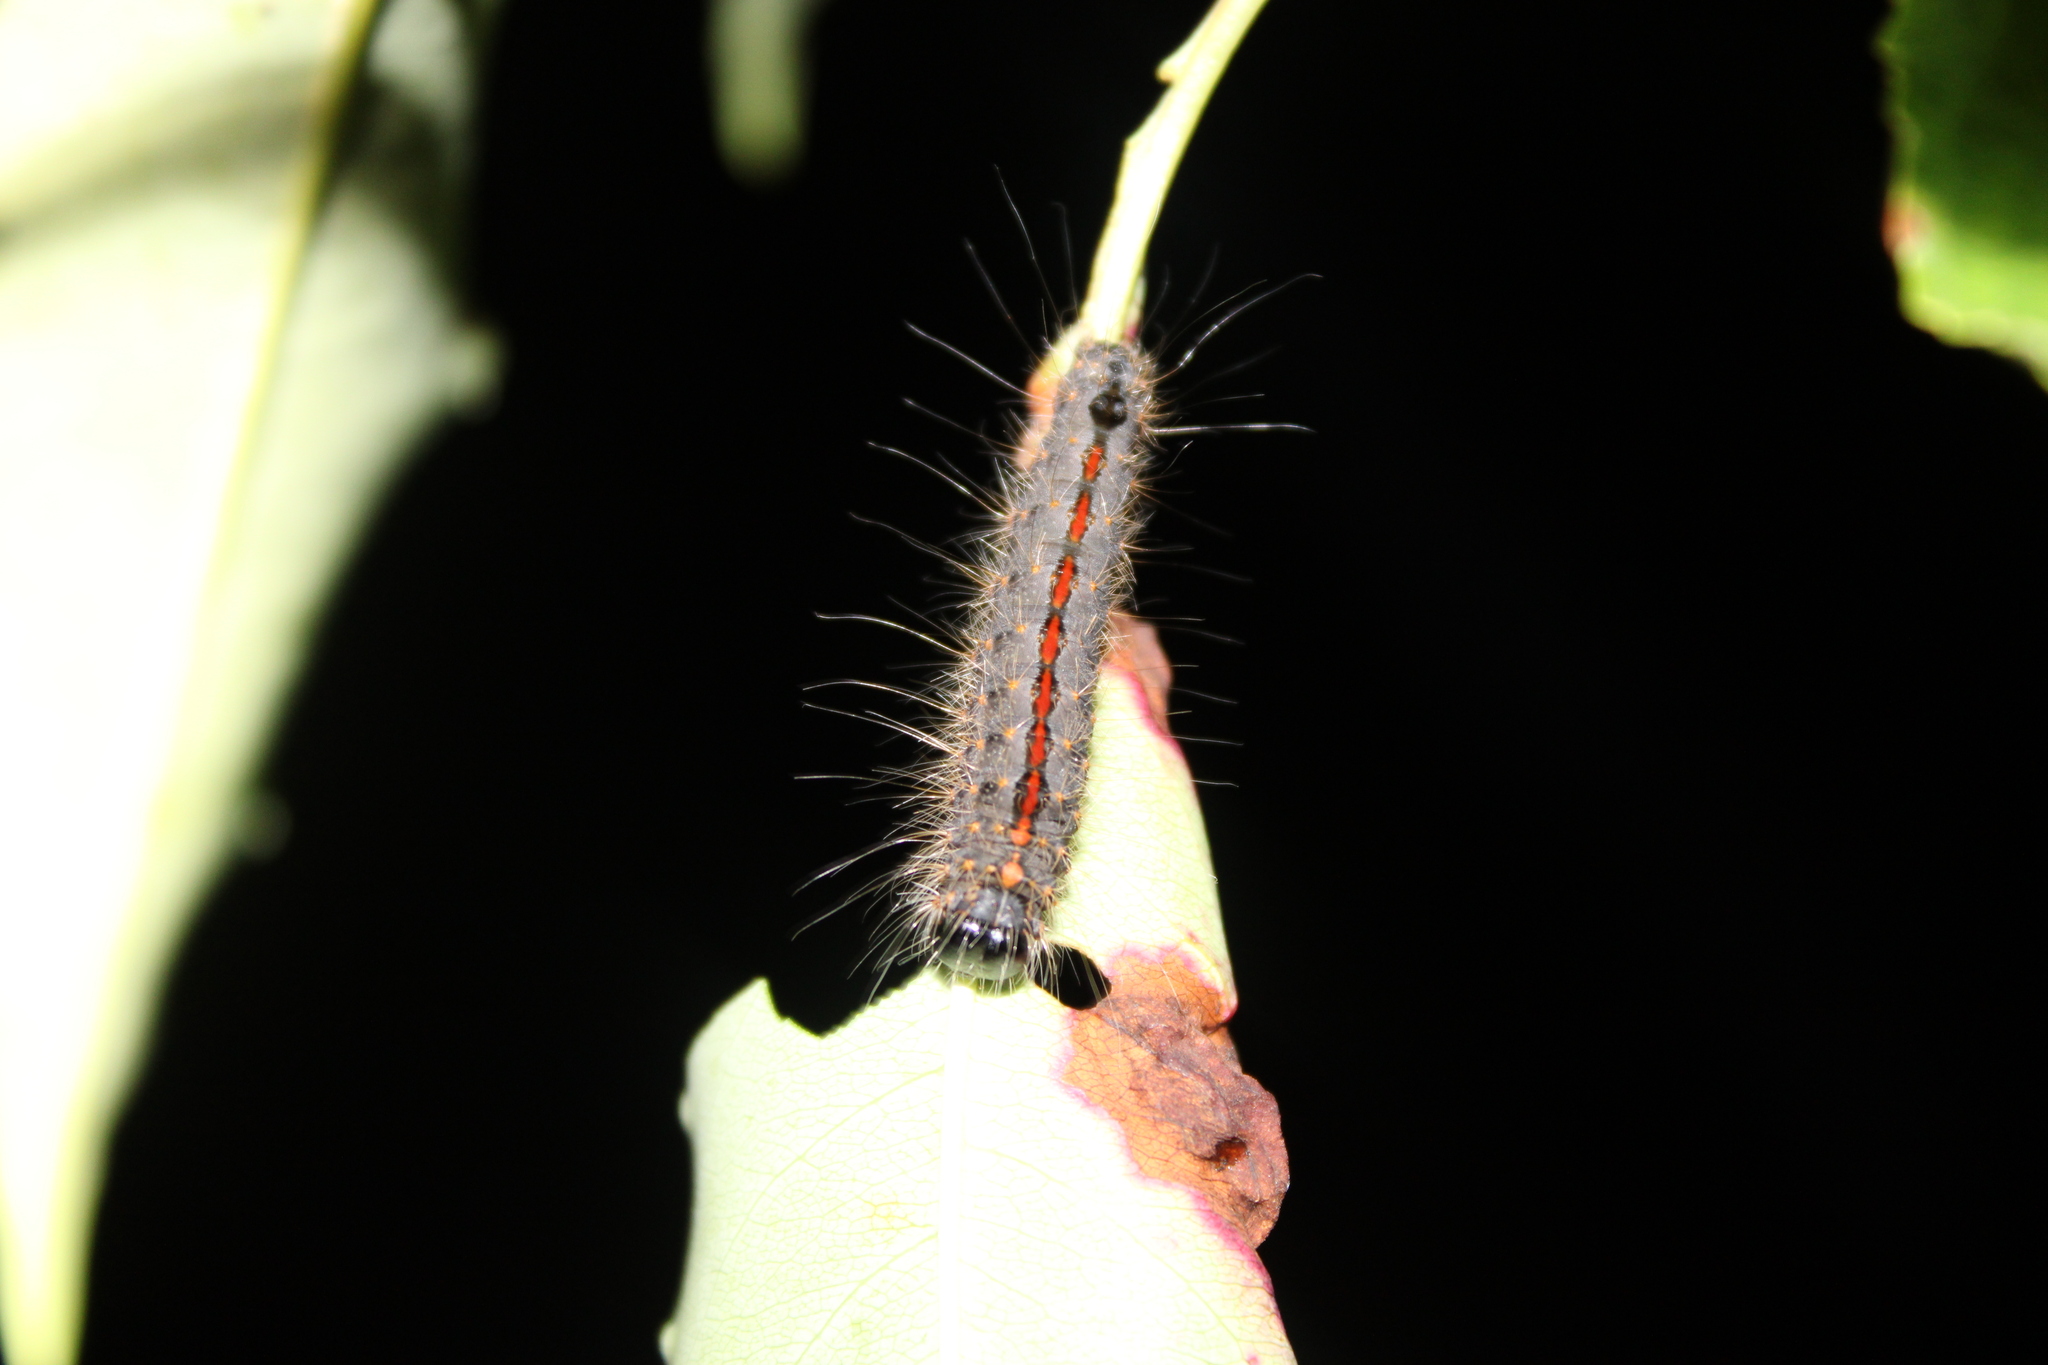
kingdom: Animalia
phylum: Arthropoda
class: Insecta
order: Lepidoptera
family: Noctuidae
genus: Acronicta
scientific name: Acronicta hasta
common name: Cherry dagger
